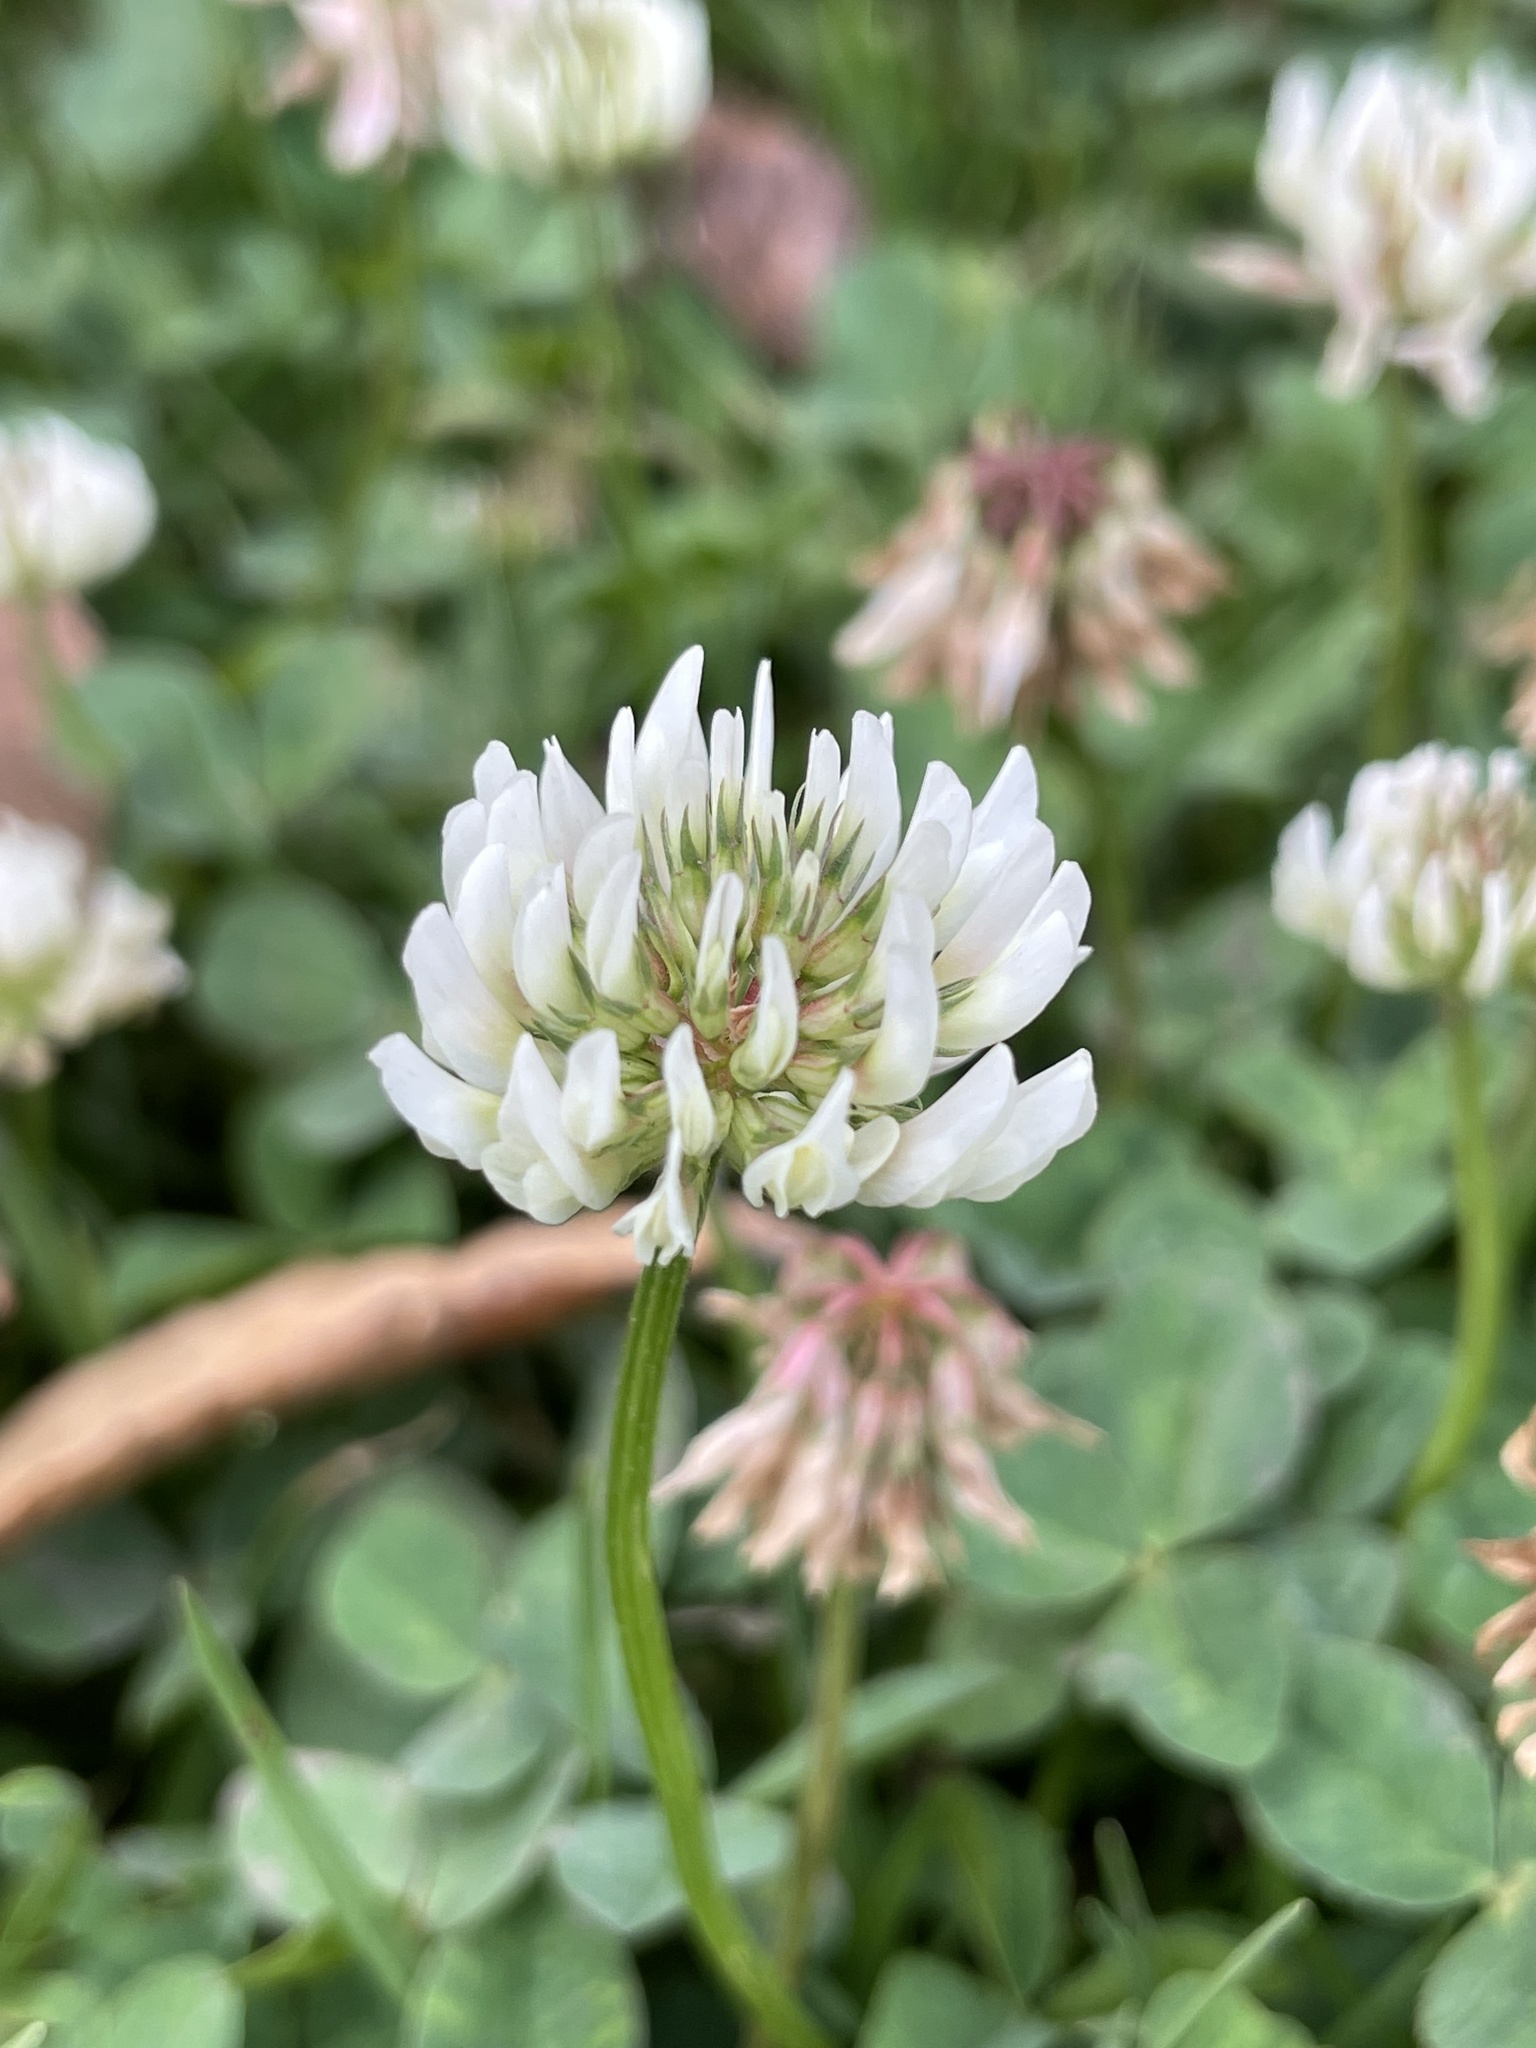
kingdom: Plantae
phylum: Tracheophyta
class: Magnoliopsida
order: Fabales
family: Fabaceae
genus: Trifolium
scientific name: Trifolium repens
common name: White clover
